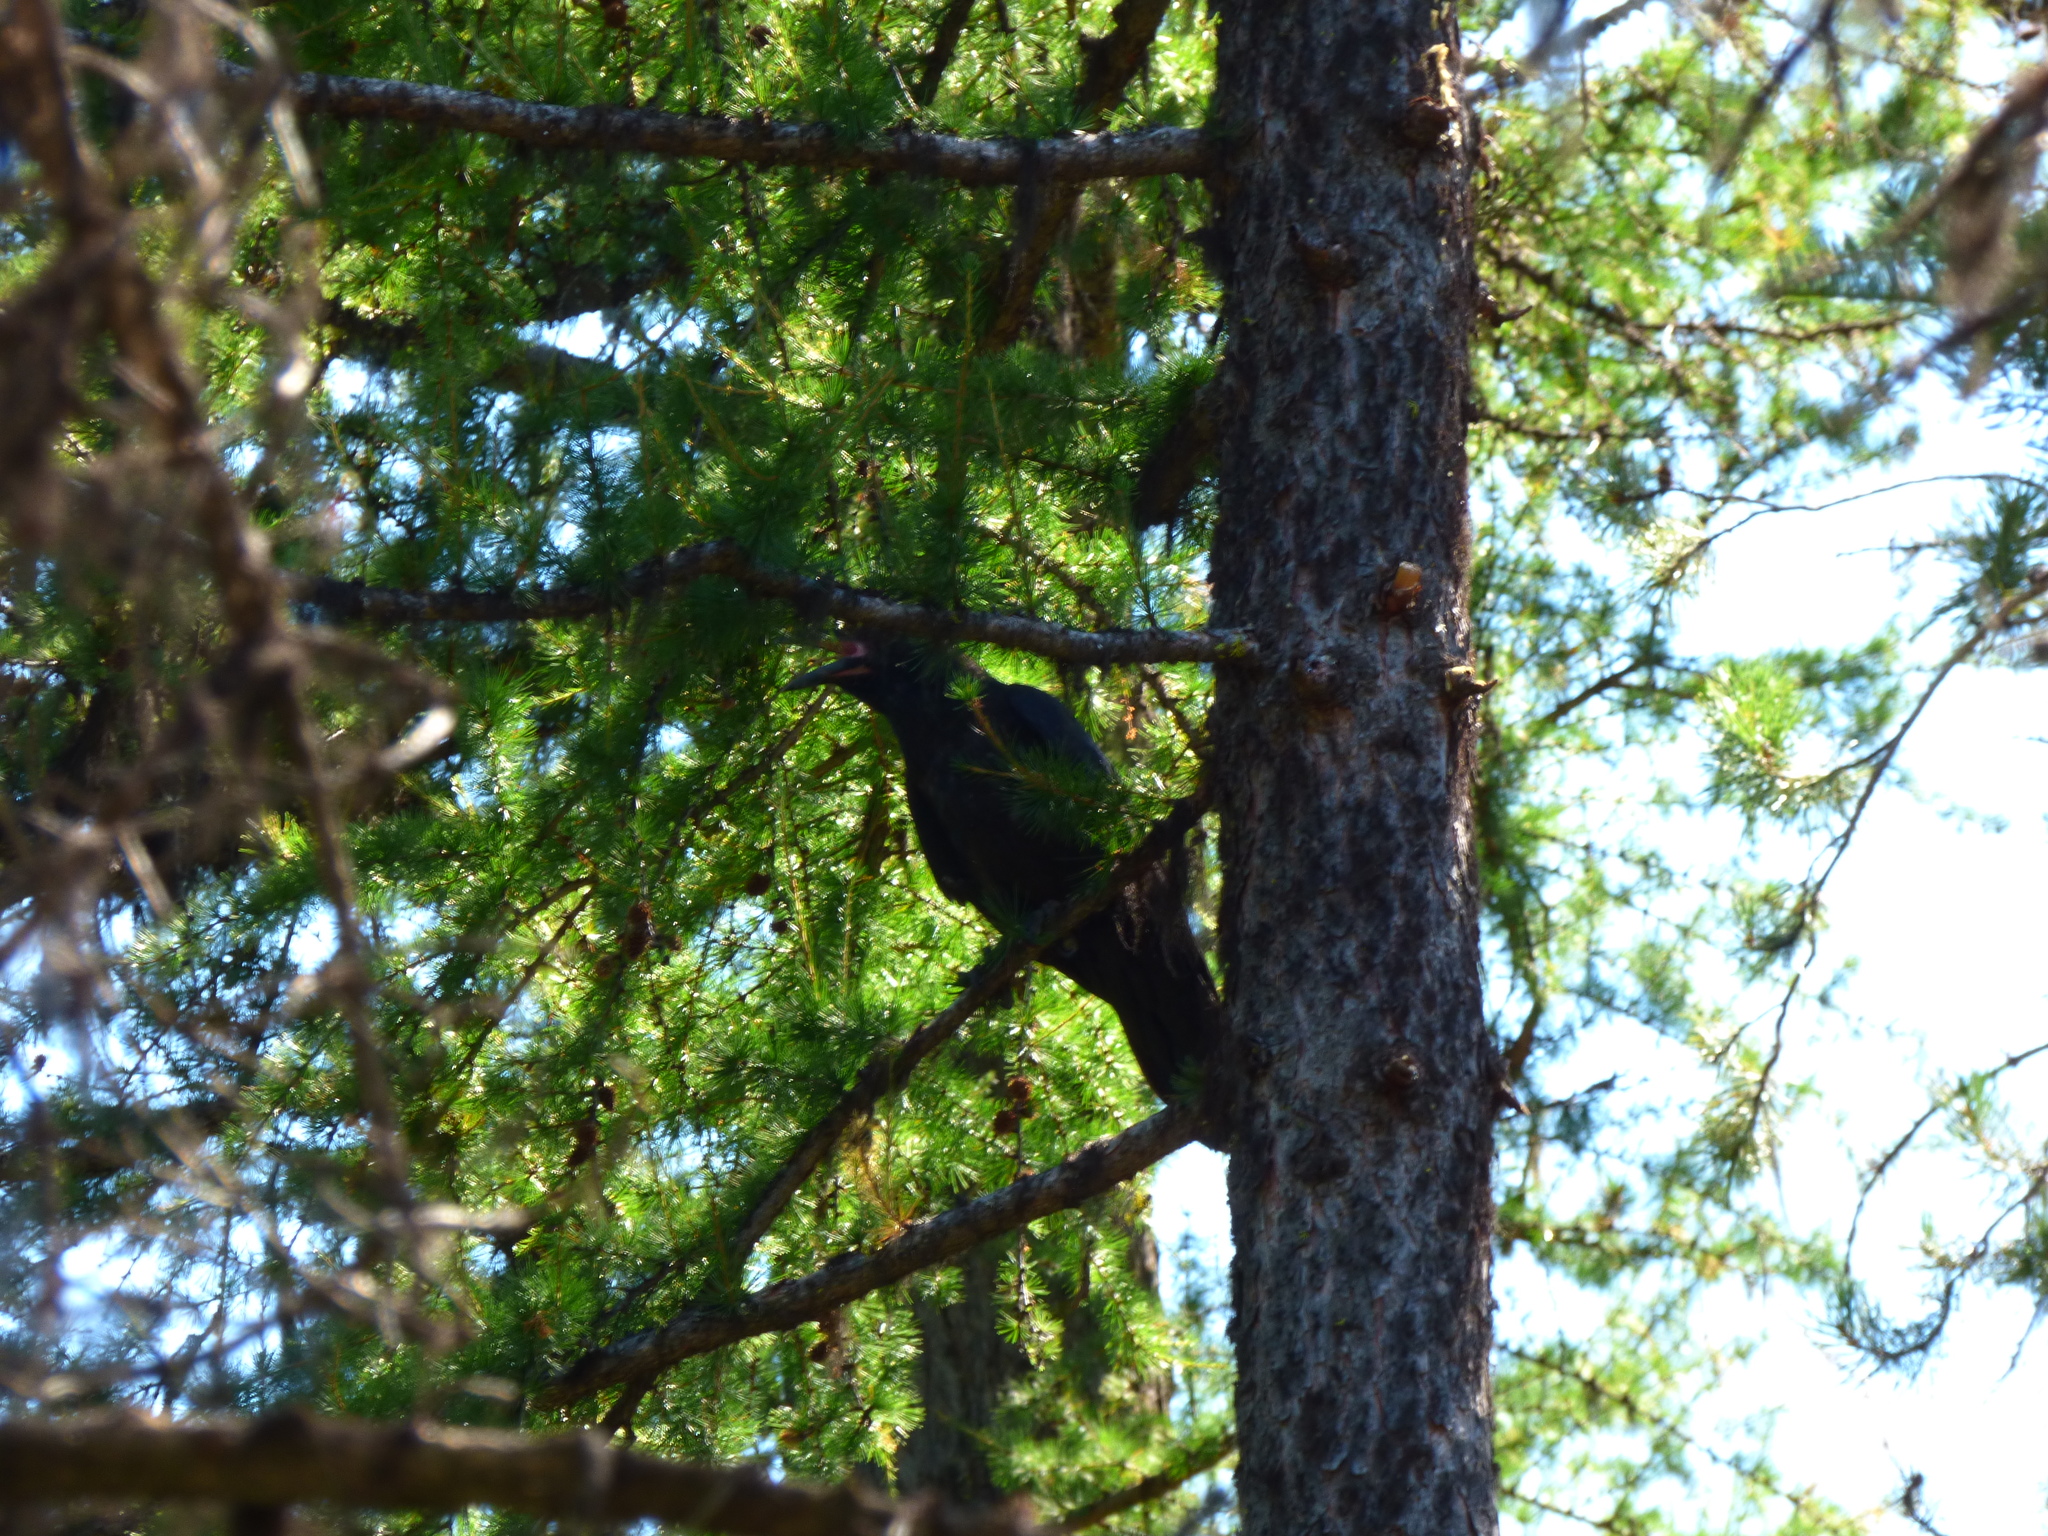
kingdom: Animalia
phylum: Chordata
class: Aves
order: Passeriformes
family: Corvidae
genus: Corvus
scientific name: Corvus corax
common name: Common raven
